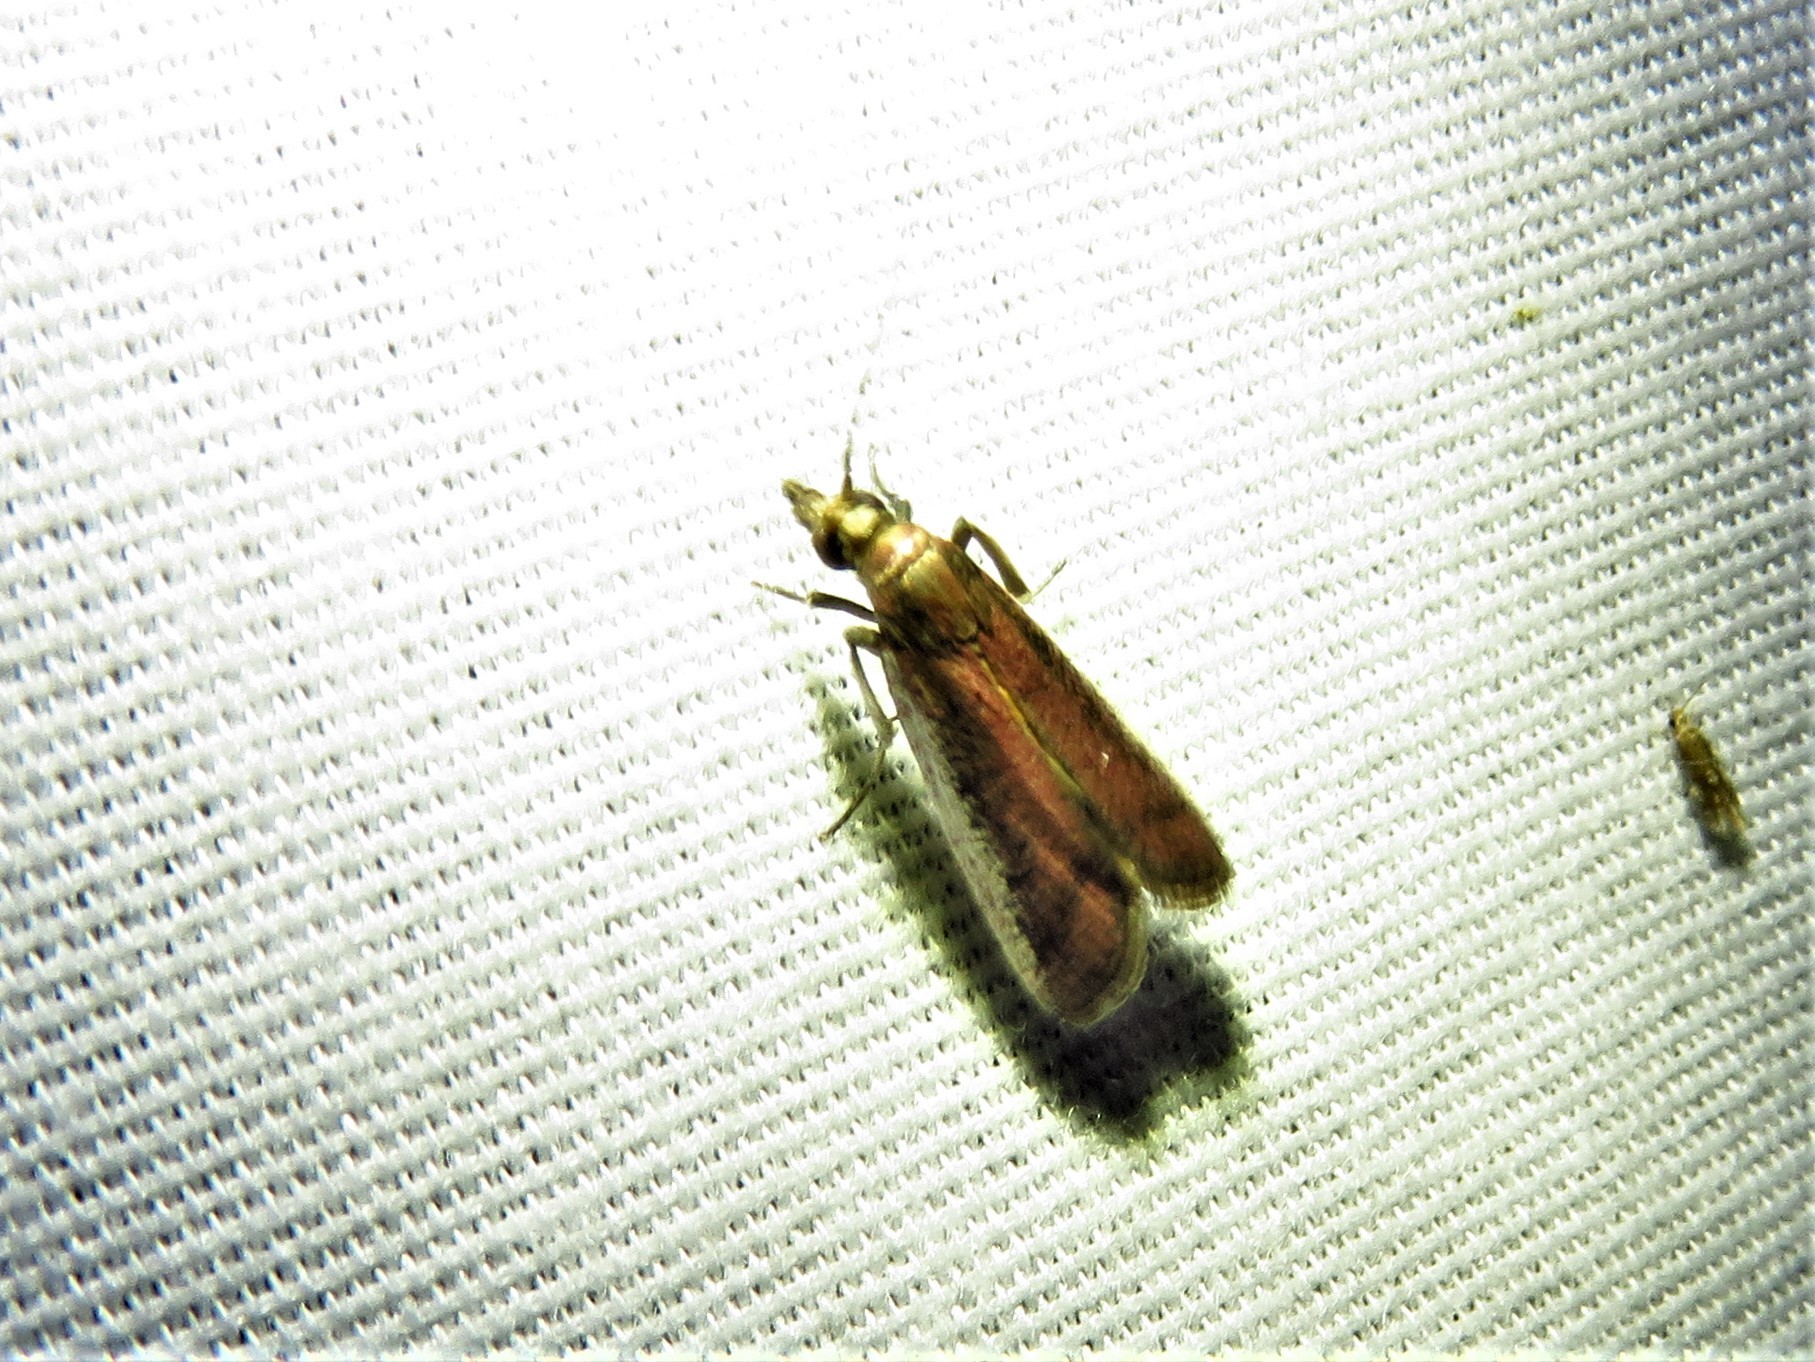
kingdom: Animalia
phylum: Arthropoda
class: Insecta
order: Lepidoptera
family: Pyralidae
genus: Atascosa
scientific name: Atascosa glareosella
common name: Rosy atascosa moth
